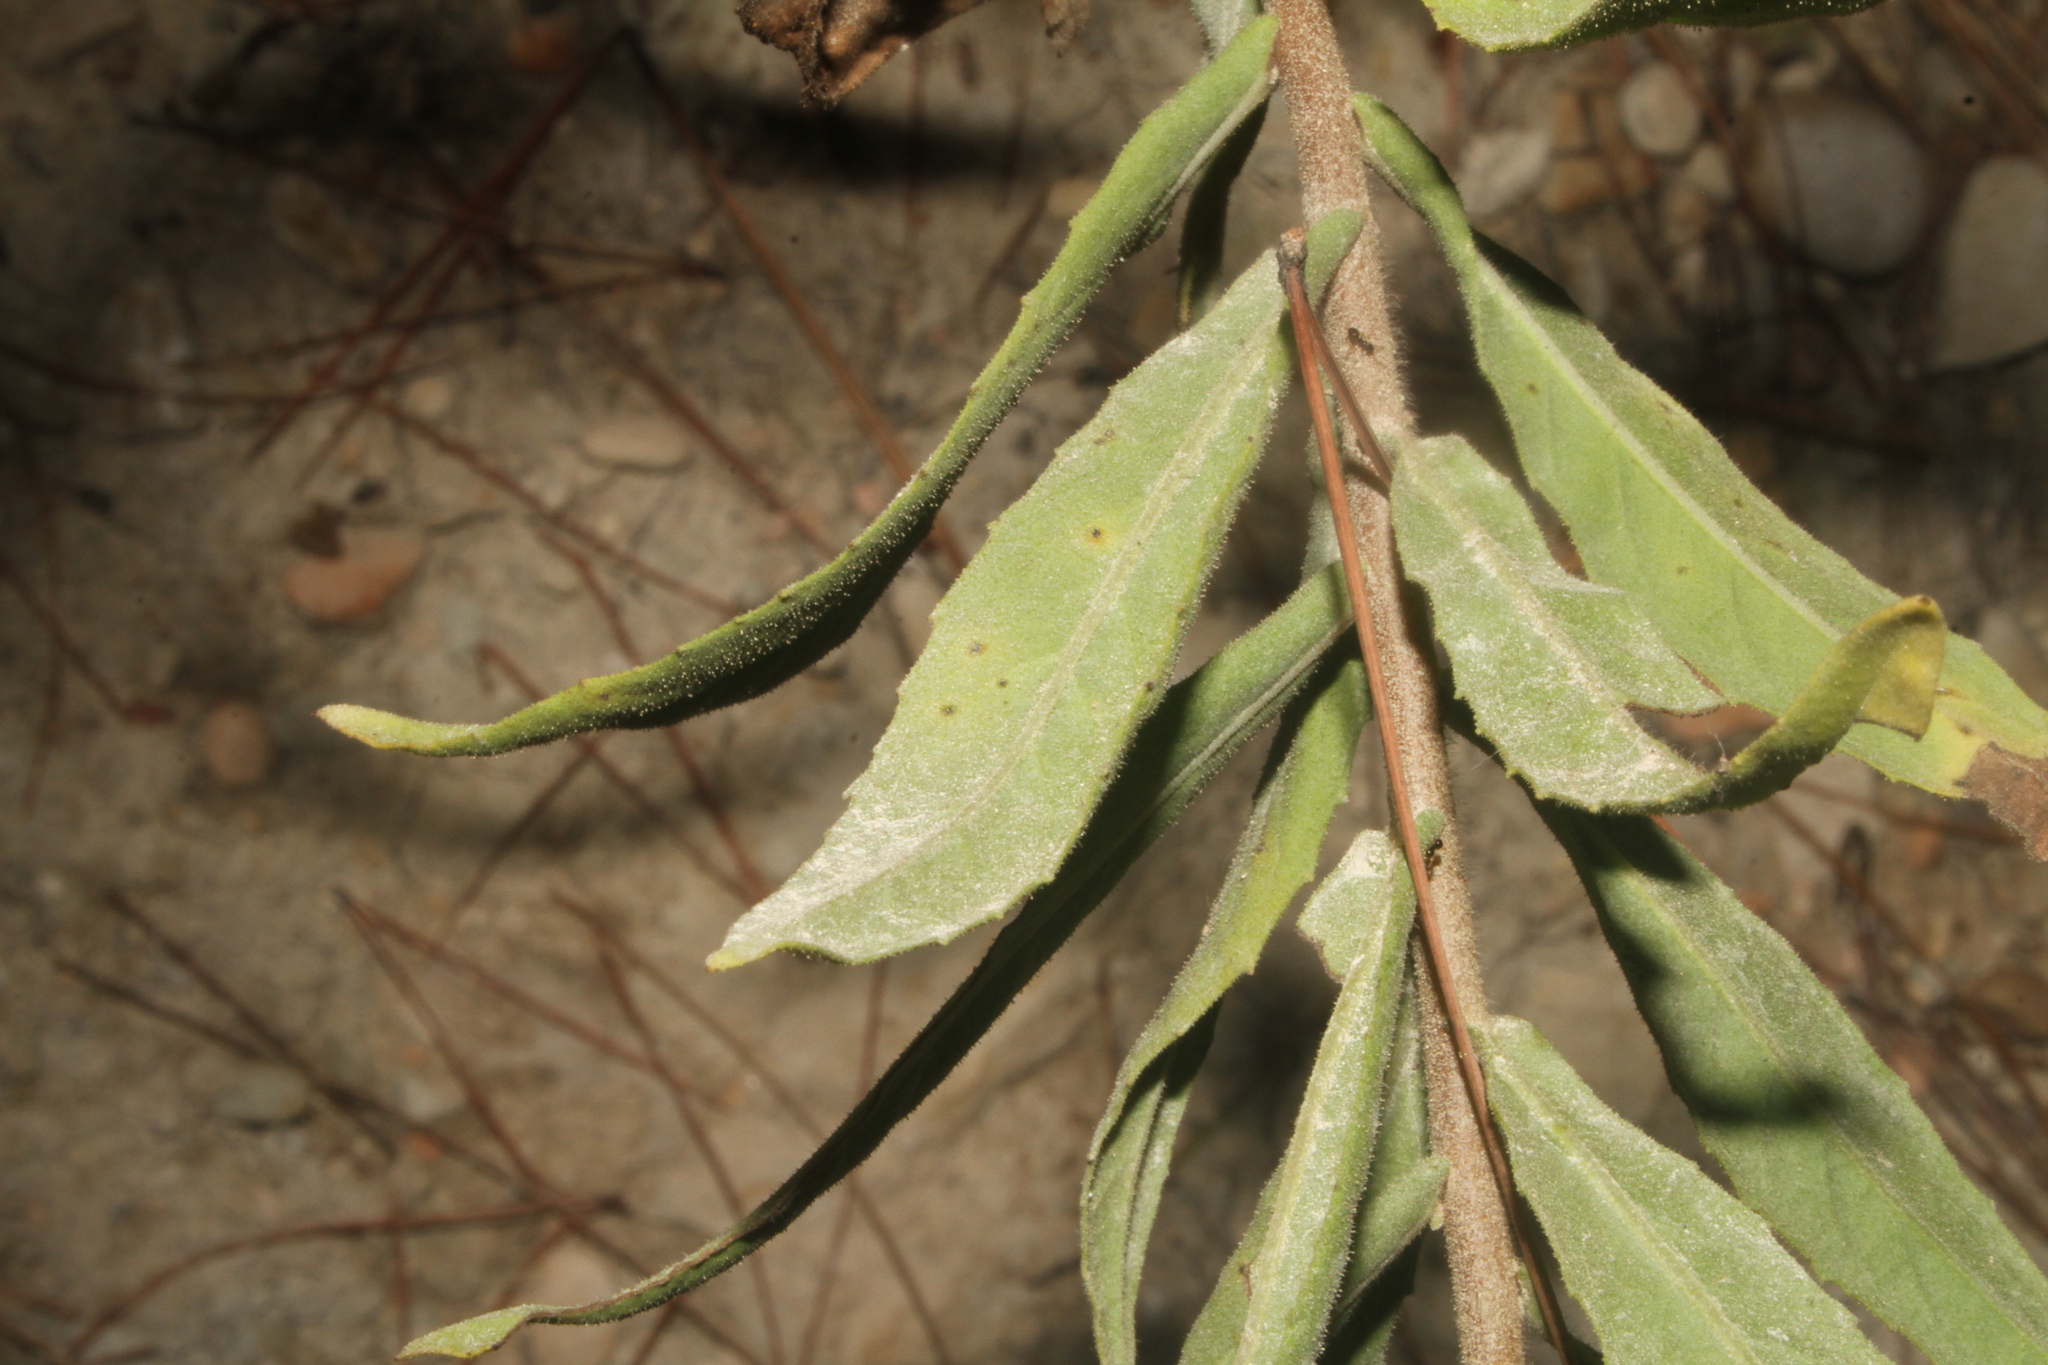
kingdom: Plantae
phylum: Tracheophyta
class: Magnoliopsida
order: Asterales
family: Asteraceae
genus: Dittrichia
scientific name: Dittrichia viscosa
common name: Woody fleabane
